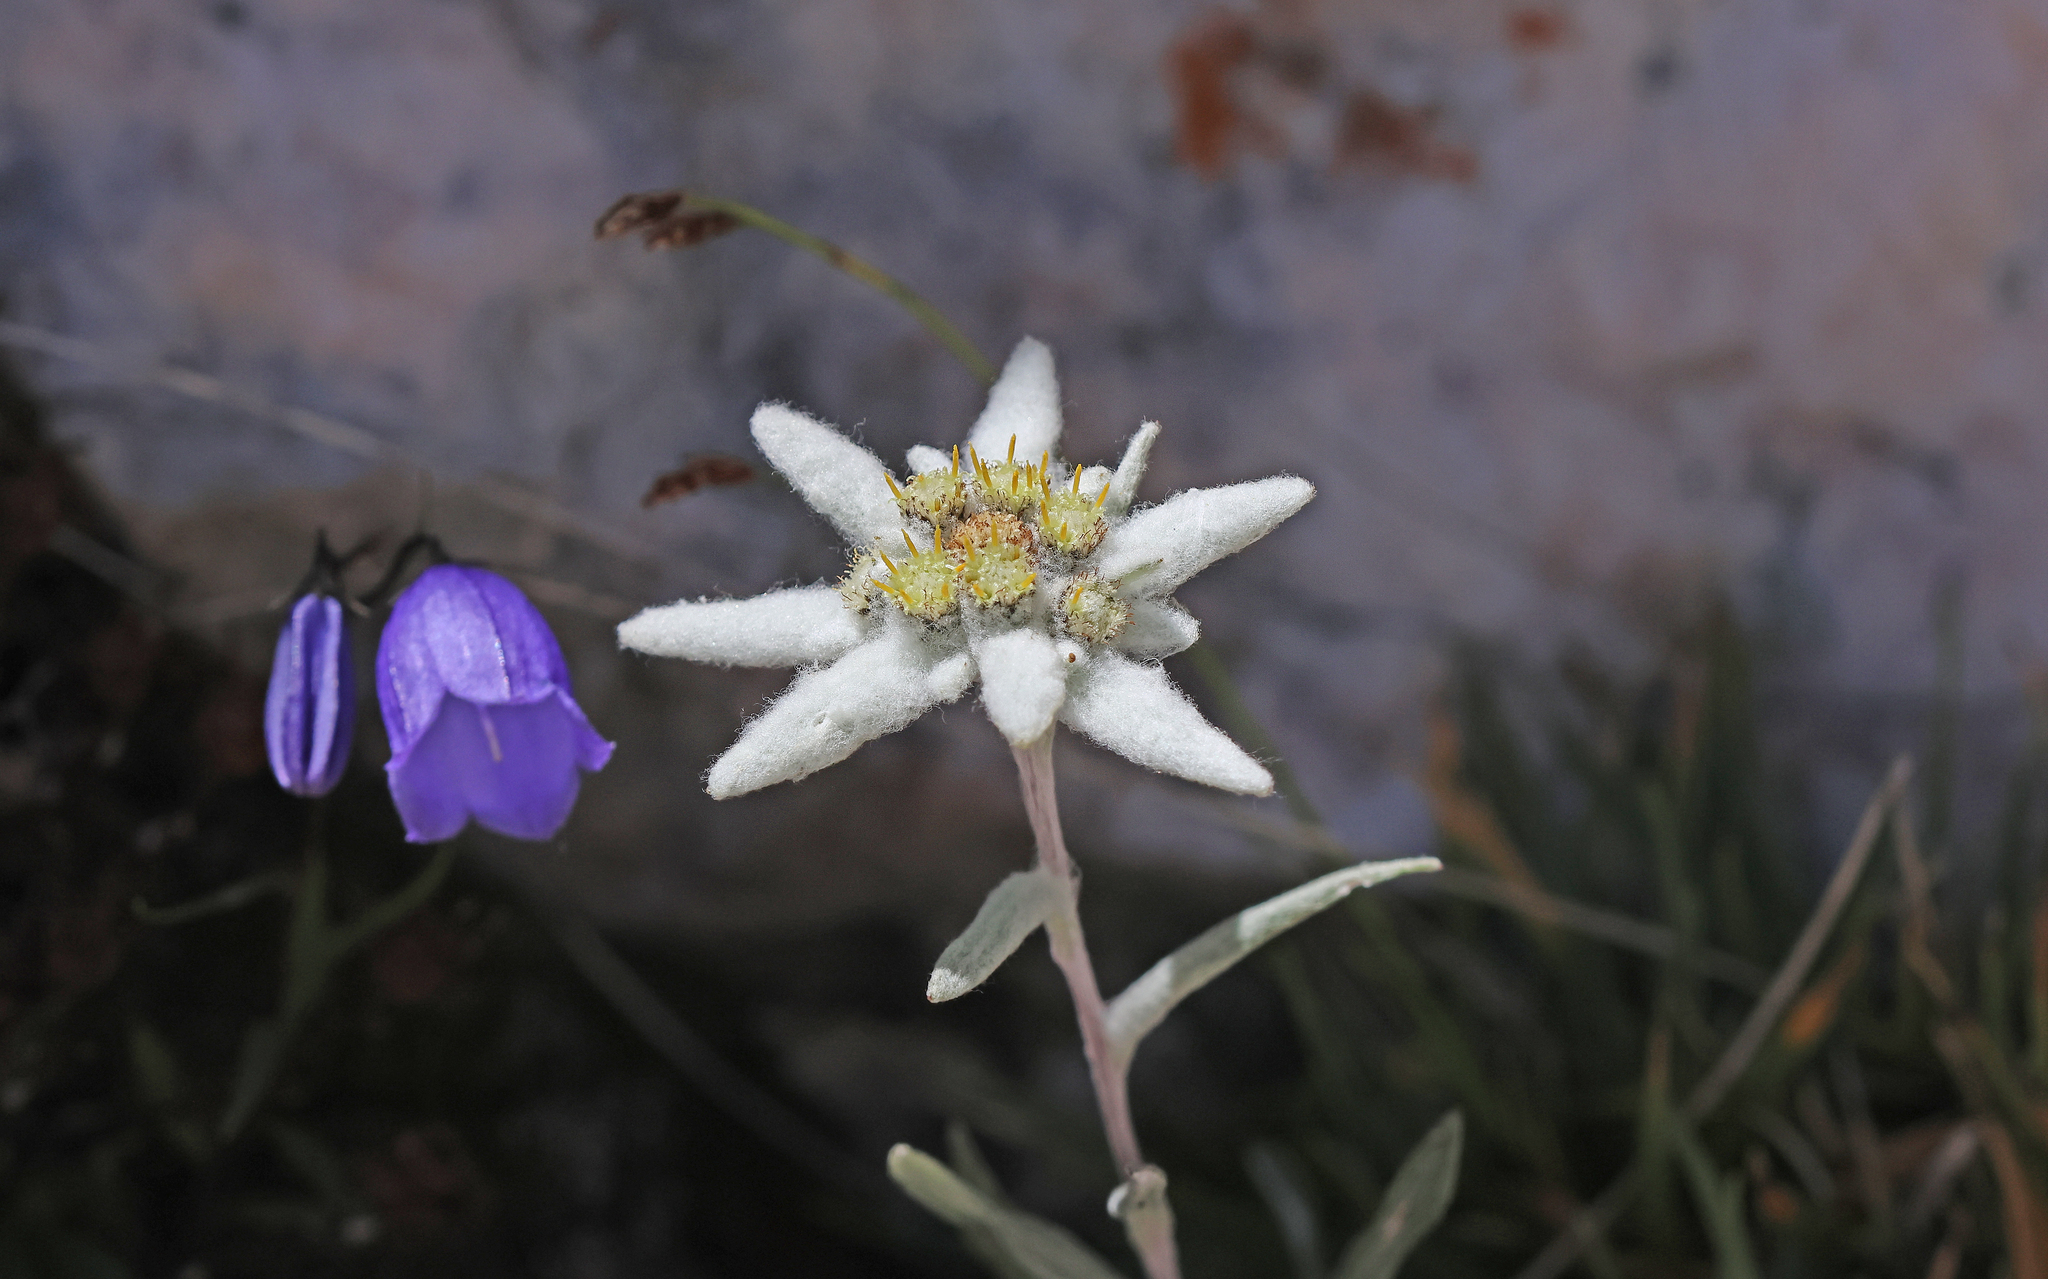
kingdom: Plantae
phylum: Tracheophyta
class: Magnoliopsida
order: Asterales
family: Asteraceae
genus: Leontopodium
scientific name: Leontopodium nivale
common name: Edelweiss
